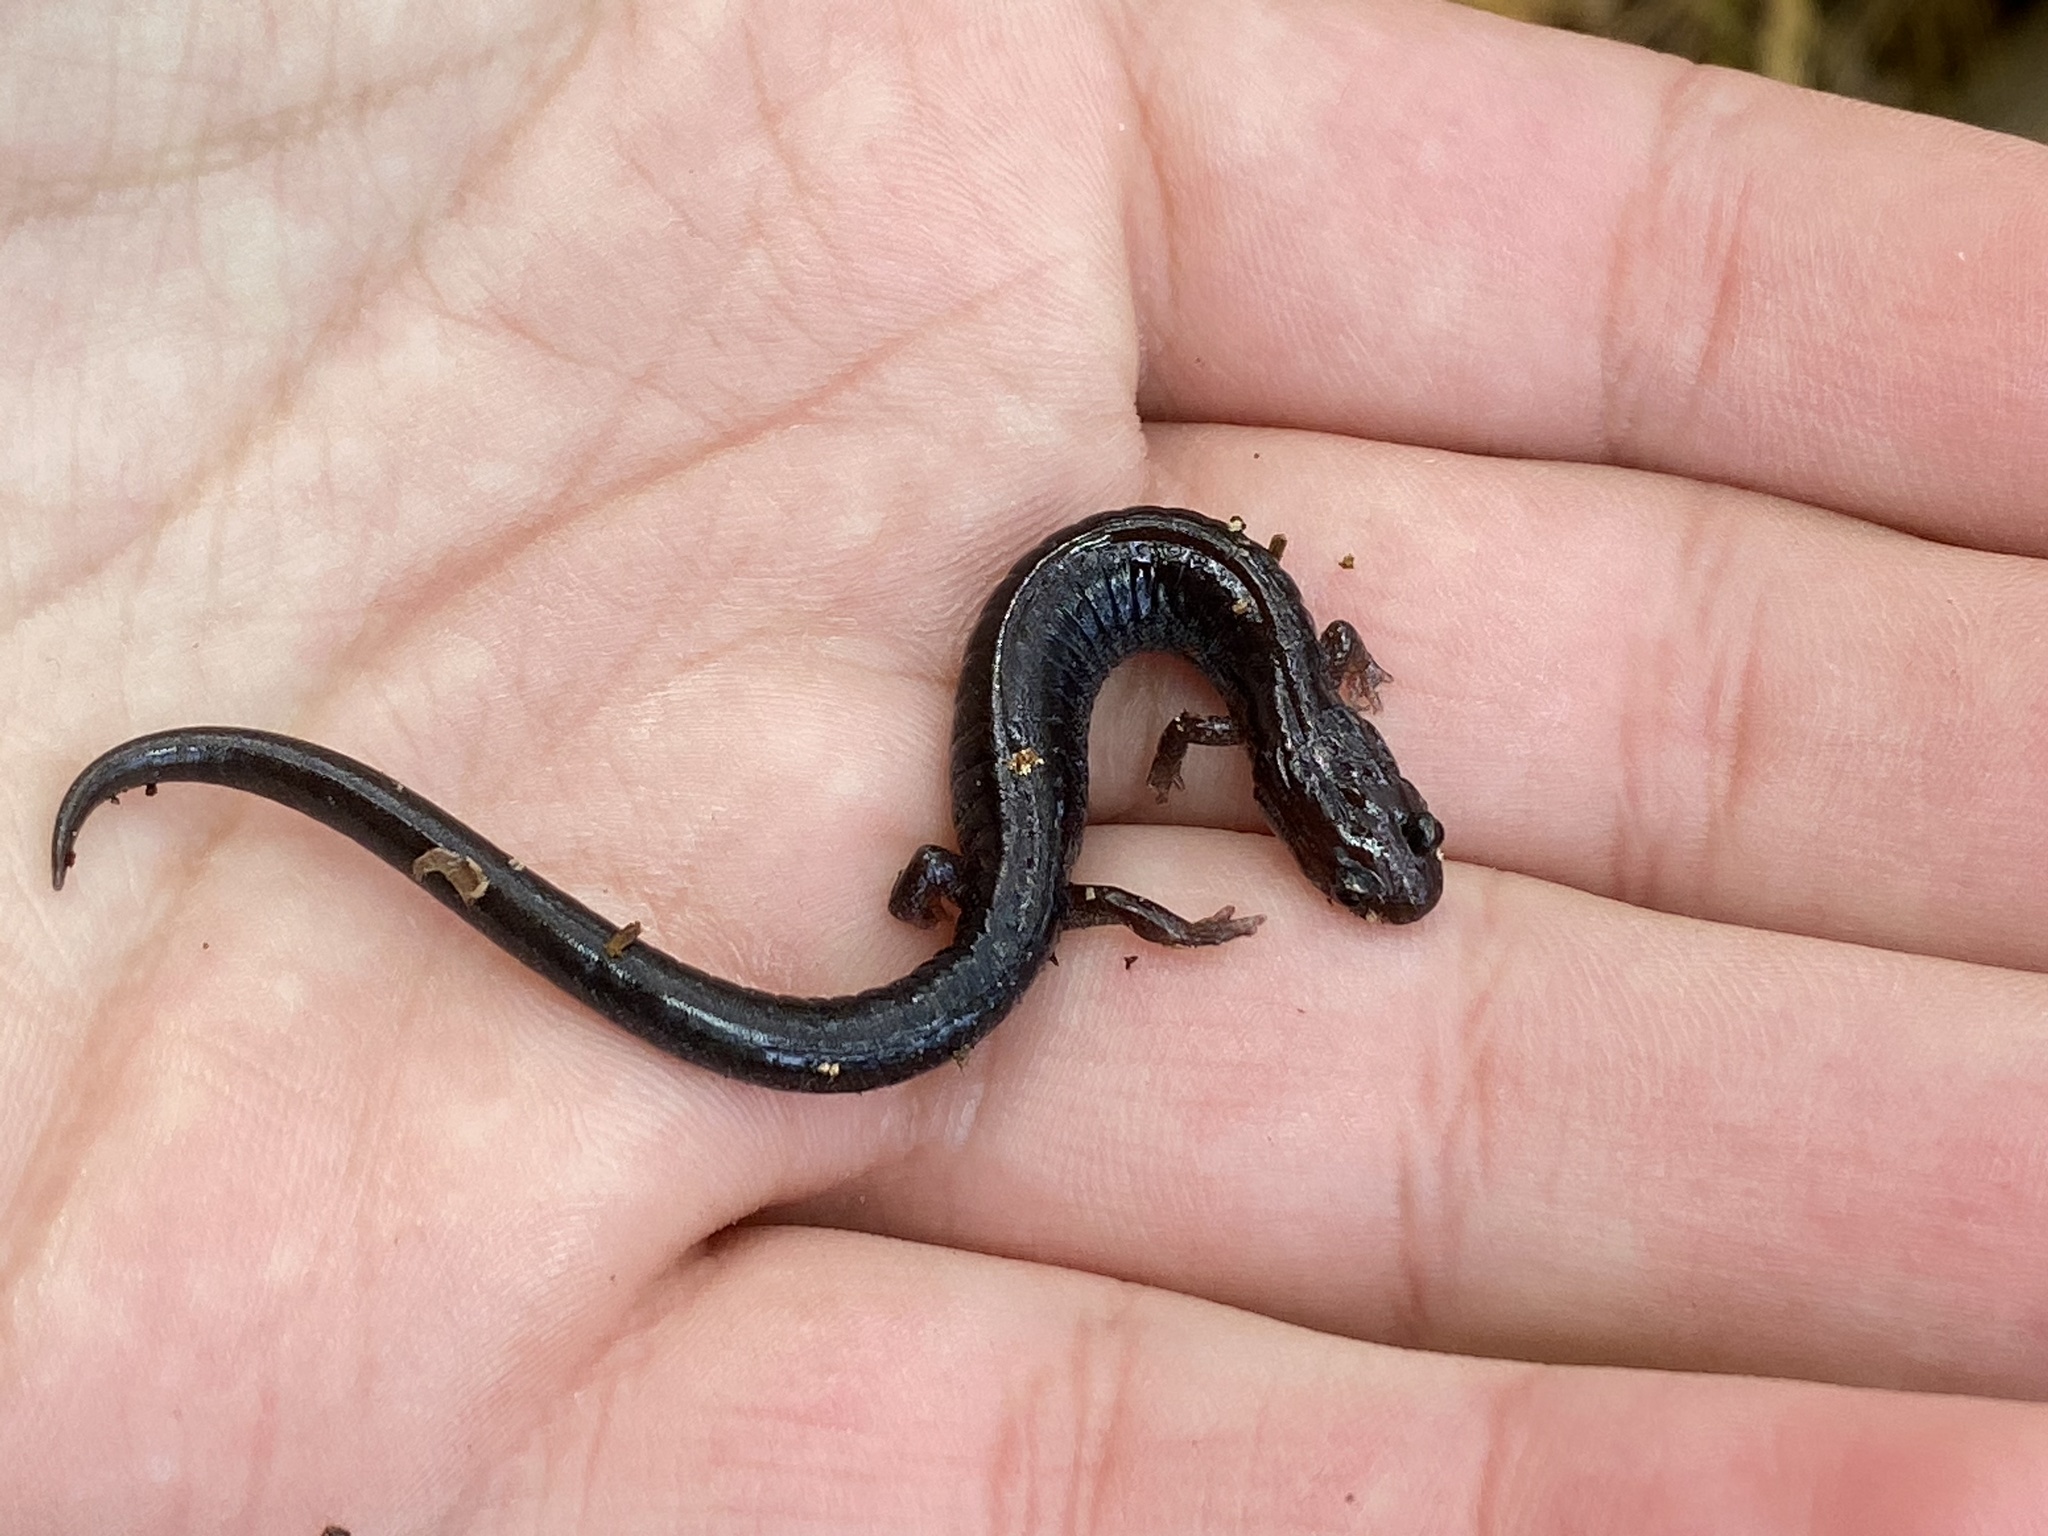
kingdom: Animalia
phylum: Chordata
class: Amphibia
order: Caudata
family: Plethodontidae
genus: Plethodon
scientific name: Plethodon cinereus
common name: Redback salamander
